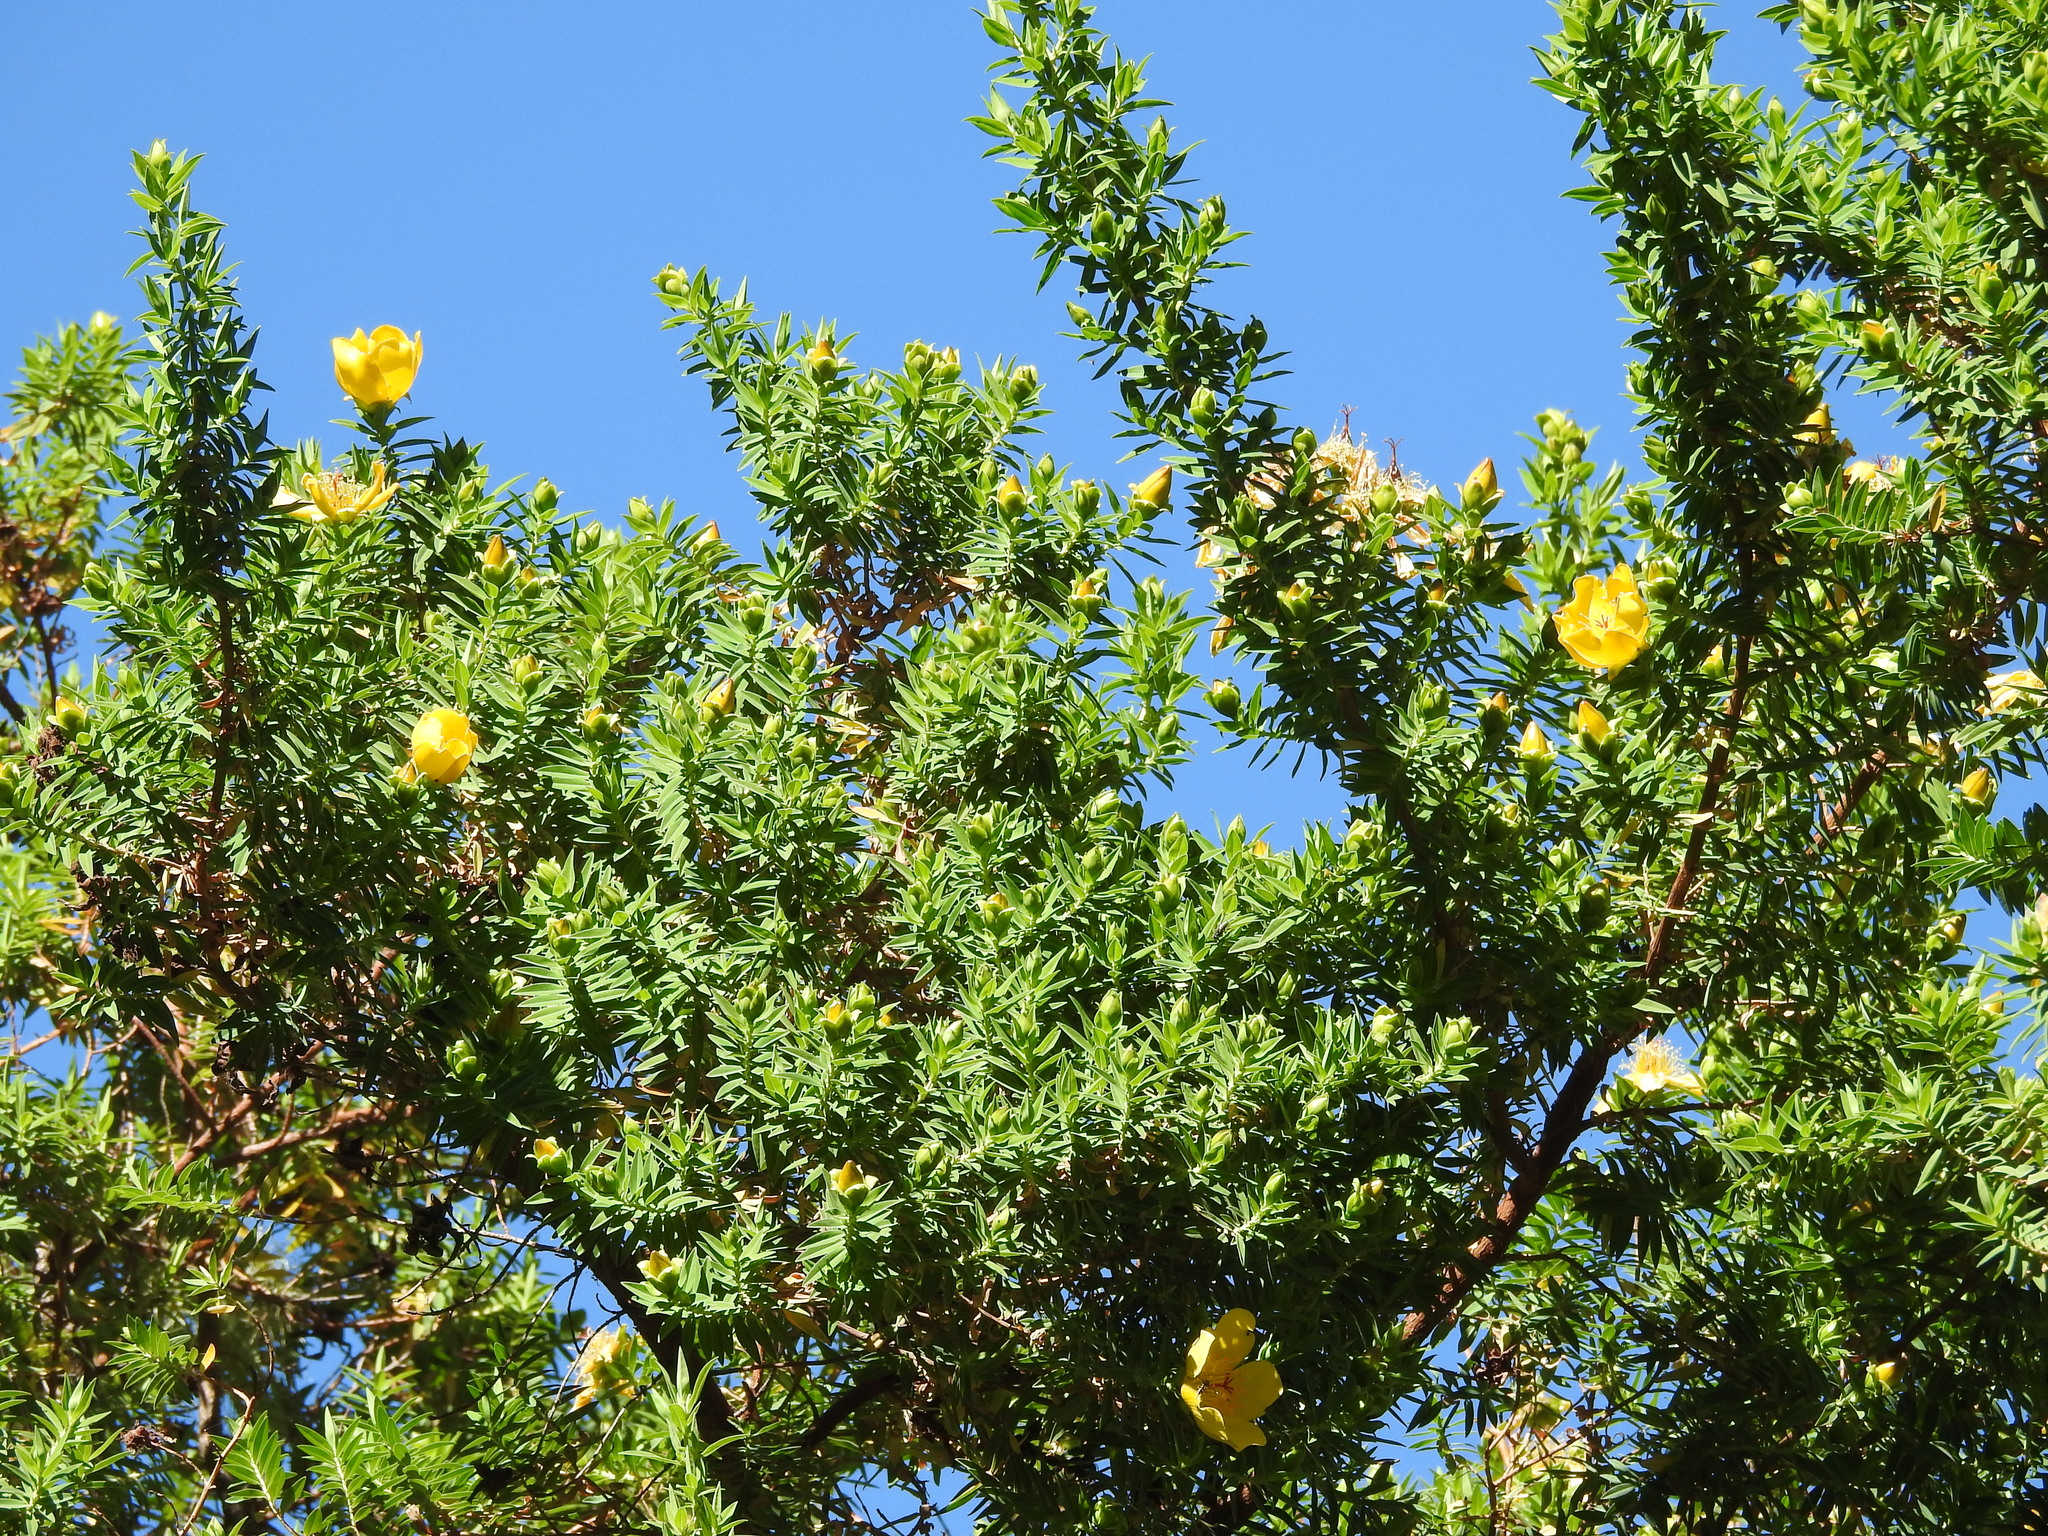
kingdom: Plantae
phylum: Tracheophyta
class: Magnoliopsida
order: Malpighiales
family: Hypericaceae
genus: Hypericum
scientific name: Hypericum revolutum
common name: Curry bush
